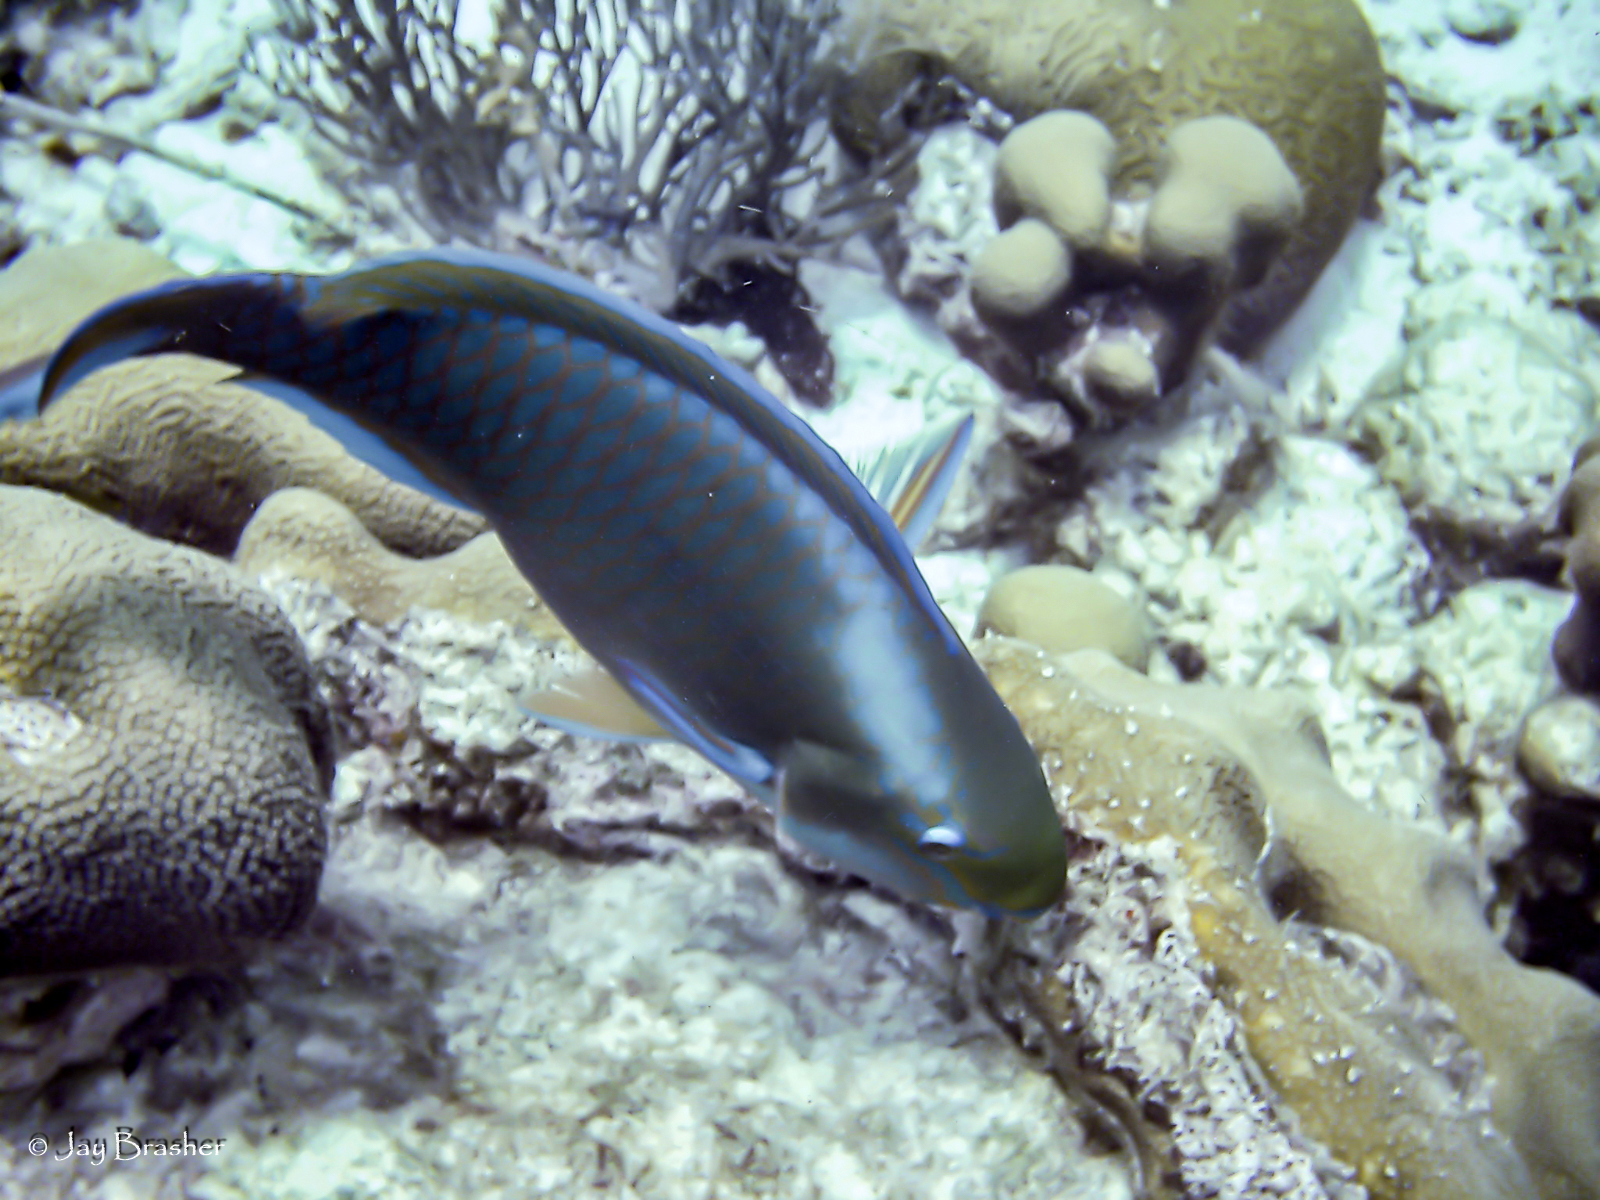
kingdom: Animalia
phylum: Chordata
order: Perciformes
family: Scaridae
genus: Scarus
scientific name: Scarus vetula
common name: Queen parrotfish
